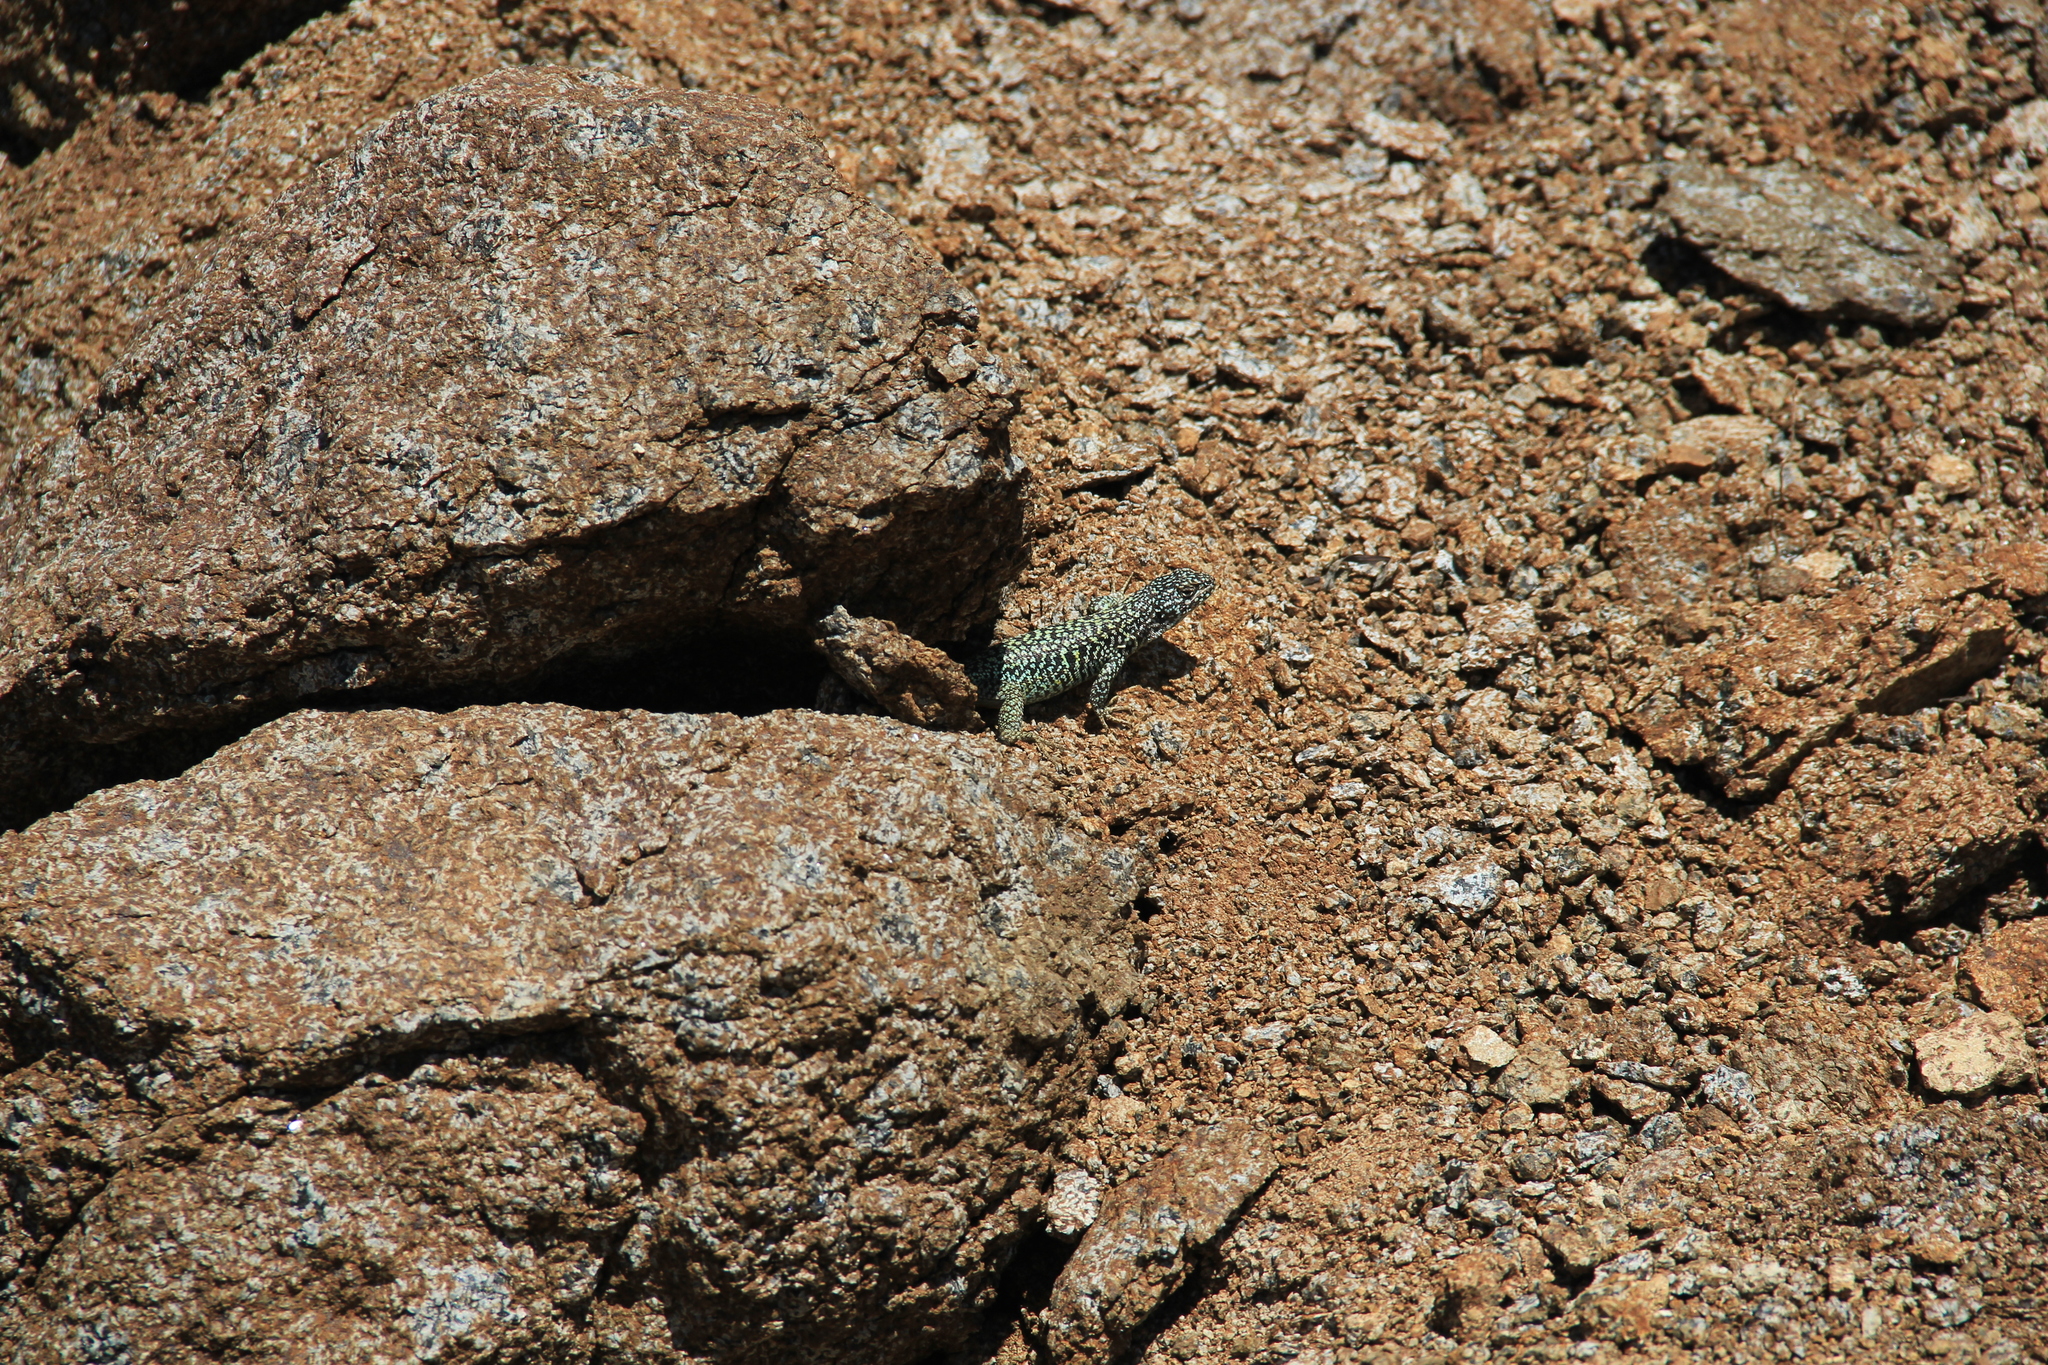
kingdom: Animalia
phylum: Chordata
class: Squamata
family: Liolaemidae
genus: Liolaemus
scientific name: Liolaemus nigroviridis
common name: Black-green tree iguana
